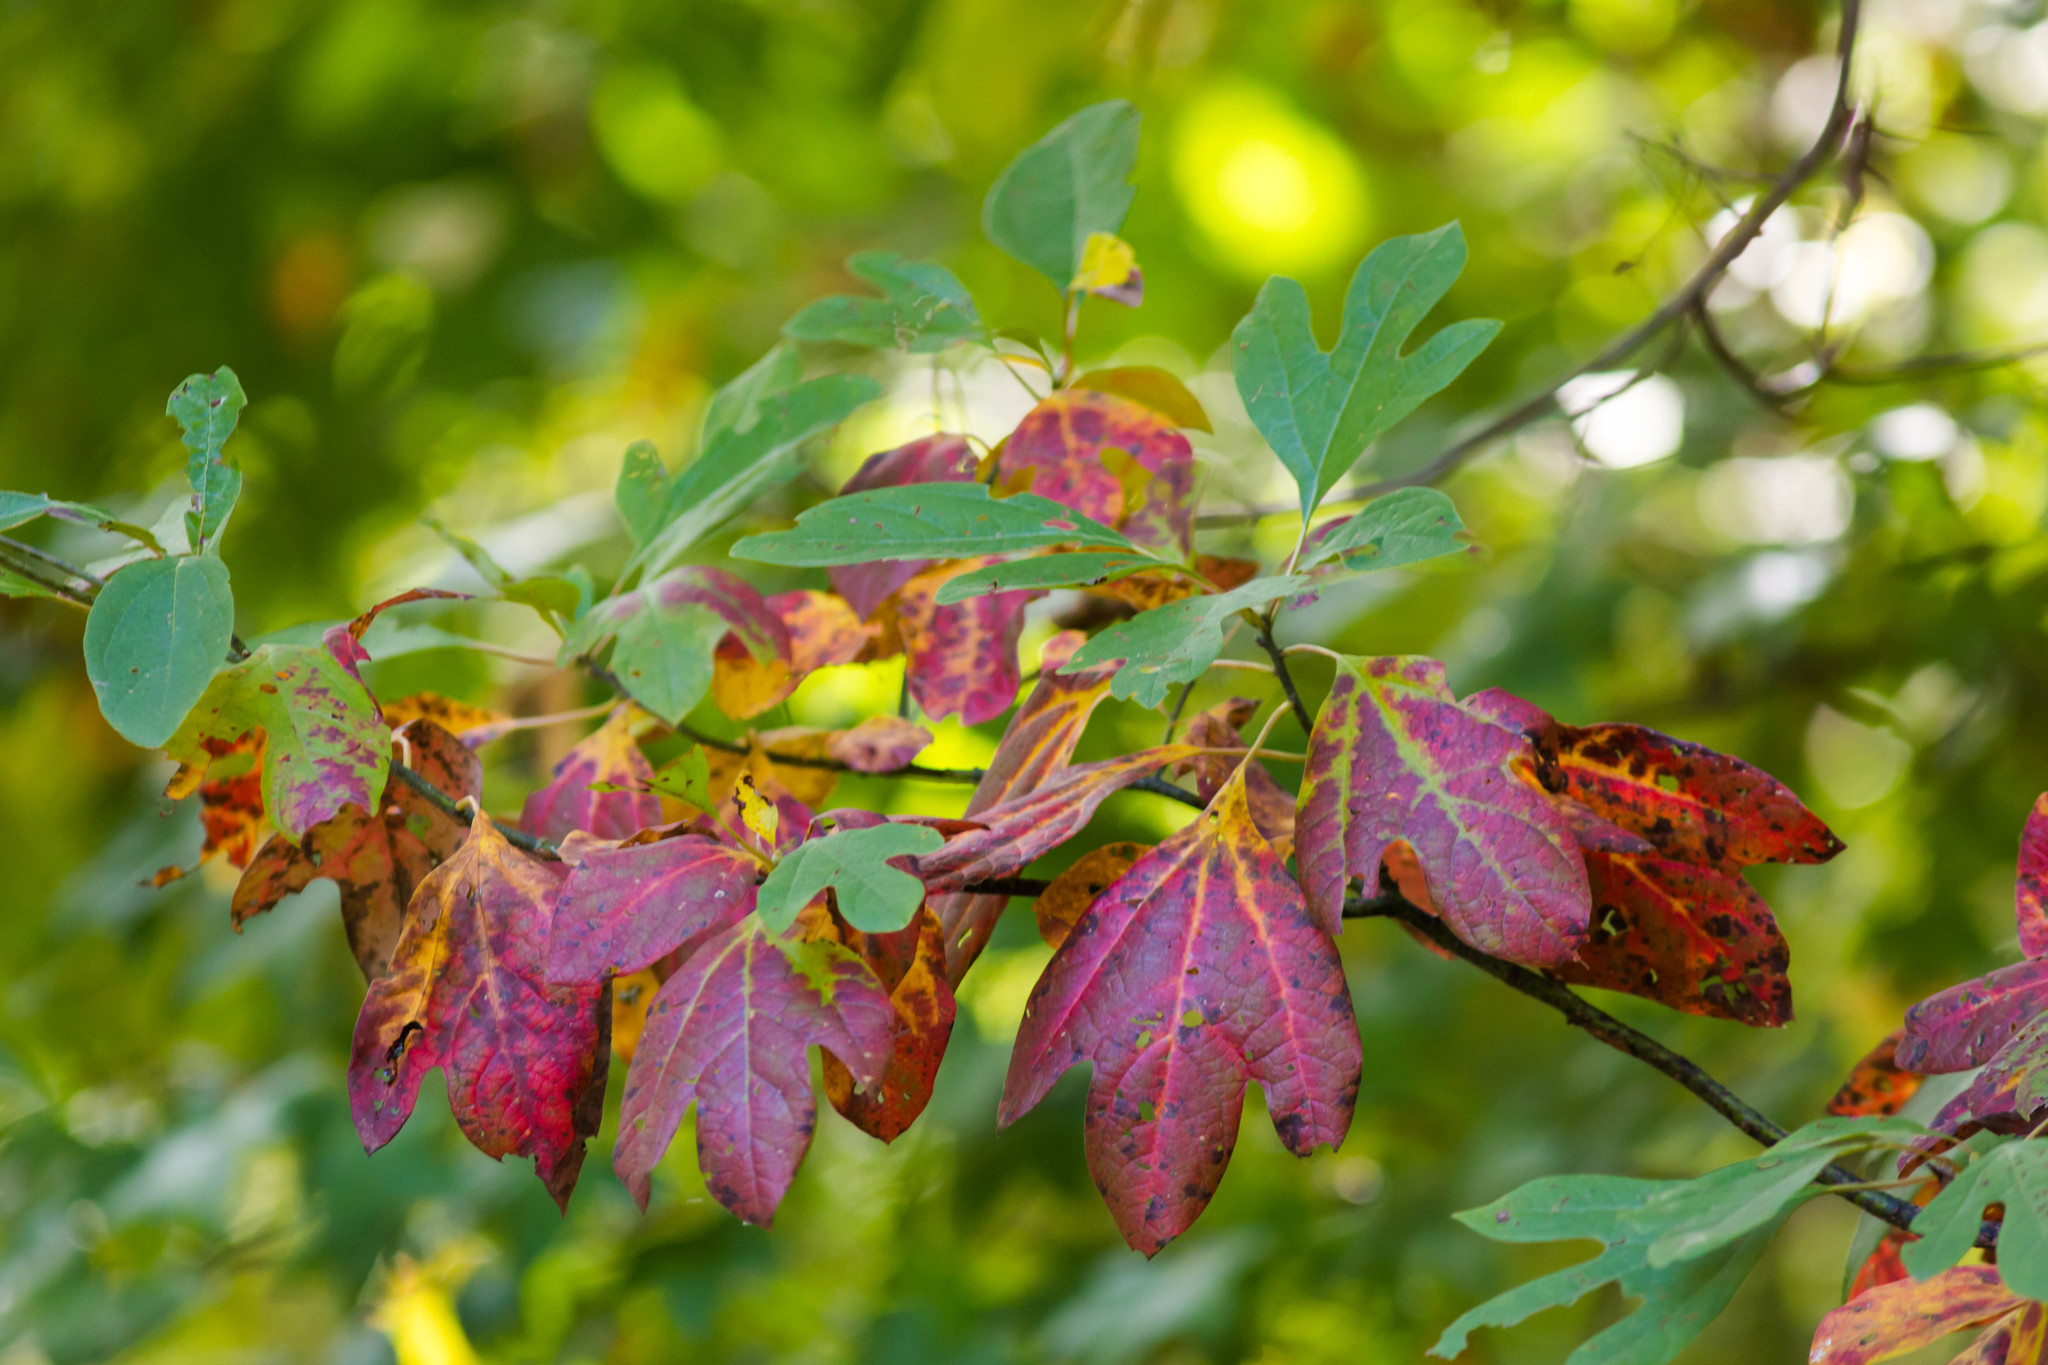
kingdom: Plantae
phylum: Tracheophyta
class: Magnoliopsida
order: Laurales
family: Lauraceae
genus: Sassafras
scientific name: Sassafras albidum
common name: Sassafras
